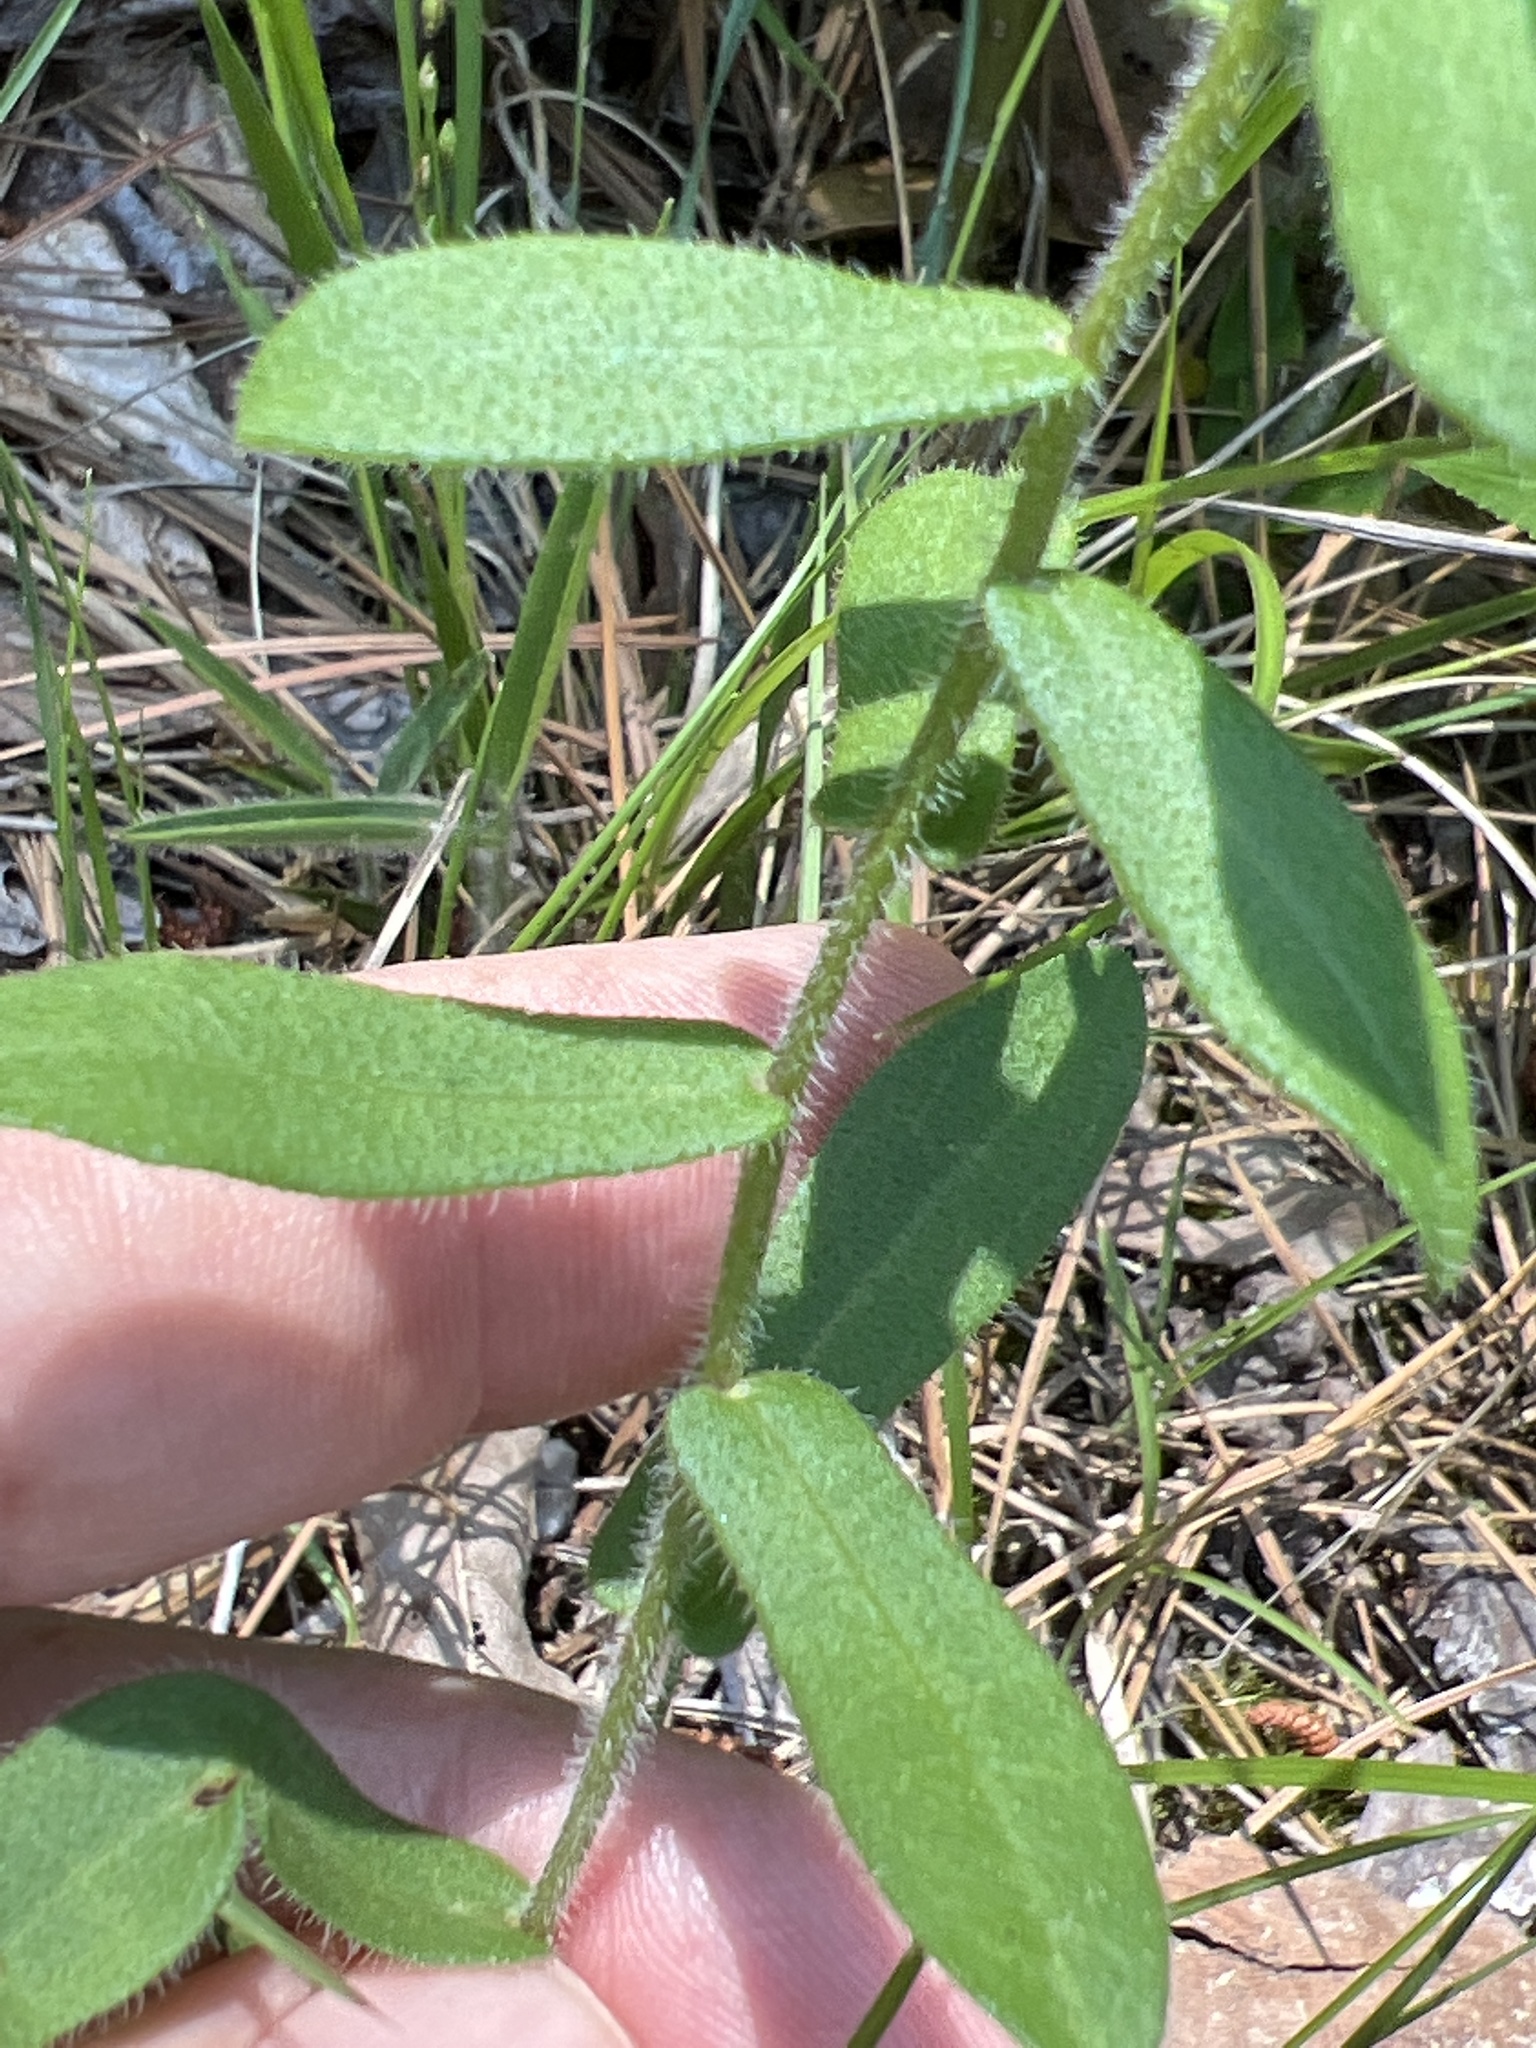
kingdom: Plantae
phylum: Tracheophyta
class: Magnoliopsida
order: Asterales
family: Asteraceae
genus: Symphyotrichum
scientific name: Symphyotrichum grandiflorum
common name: Big-head aster
